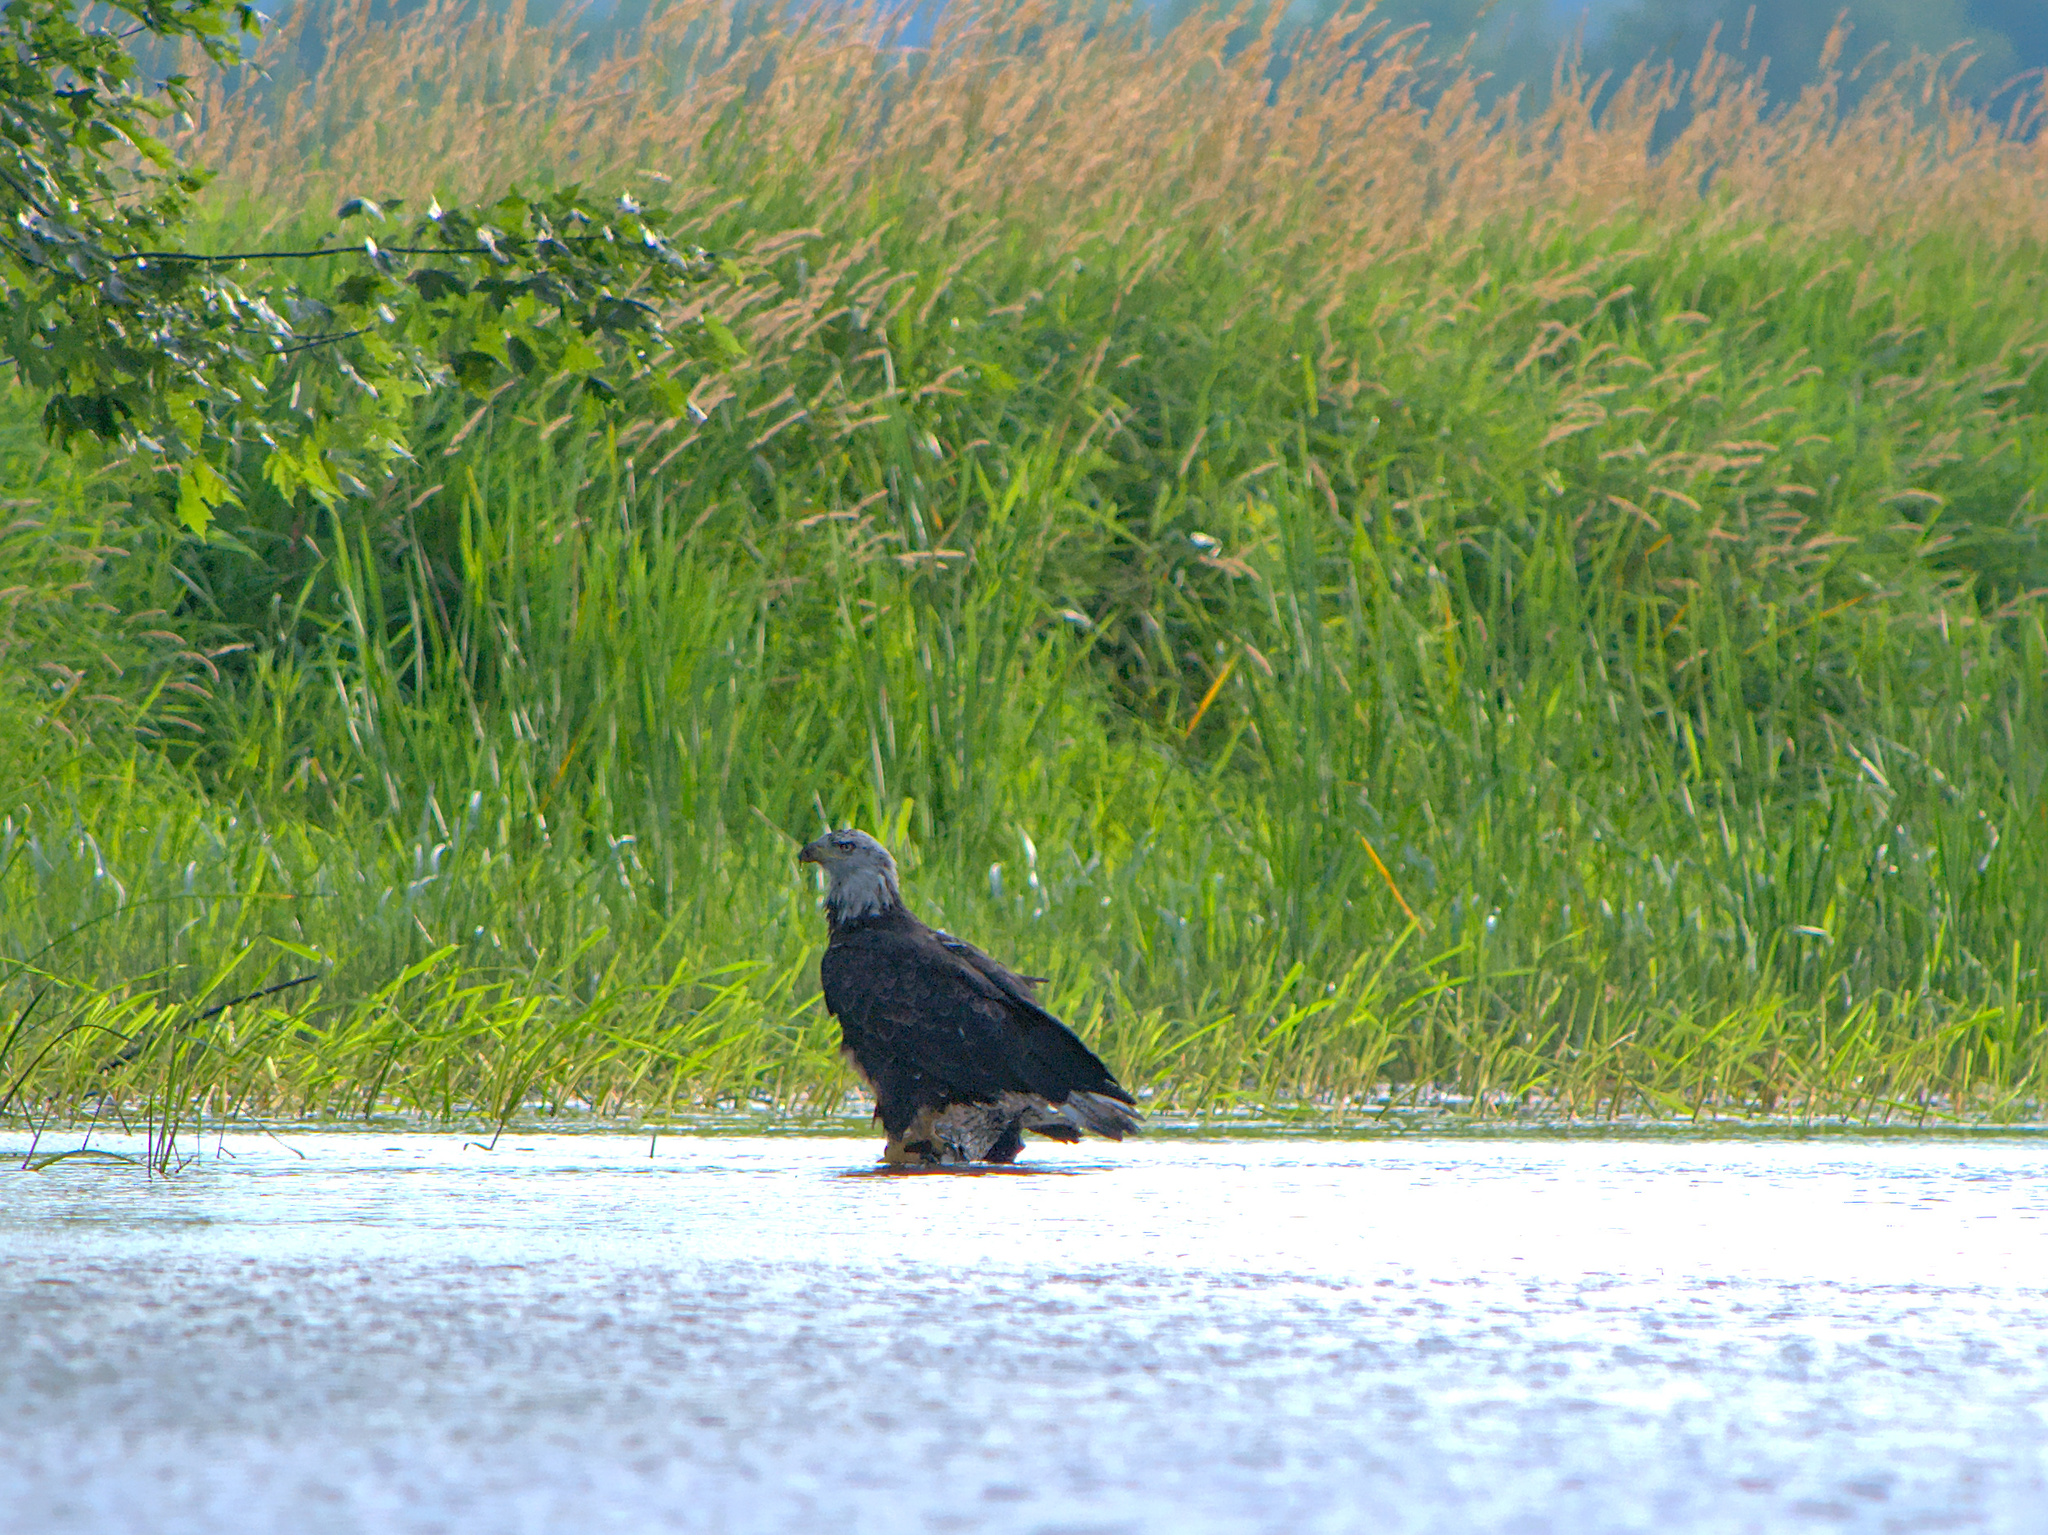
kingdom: Animalia
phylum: Chordata
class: Aves
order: Accipitriformes
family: Accipitridae
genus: Haliaeetus
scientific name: Haliaeetus leucocephalus
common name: Bald eagle
